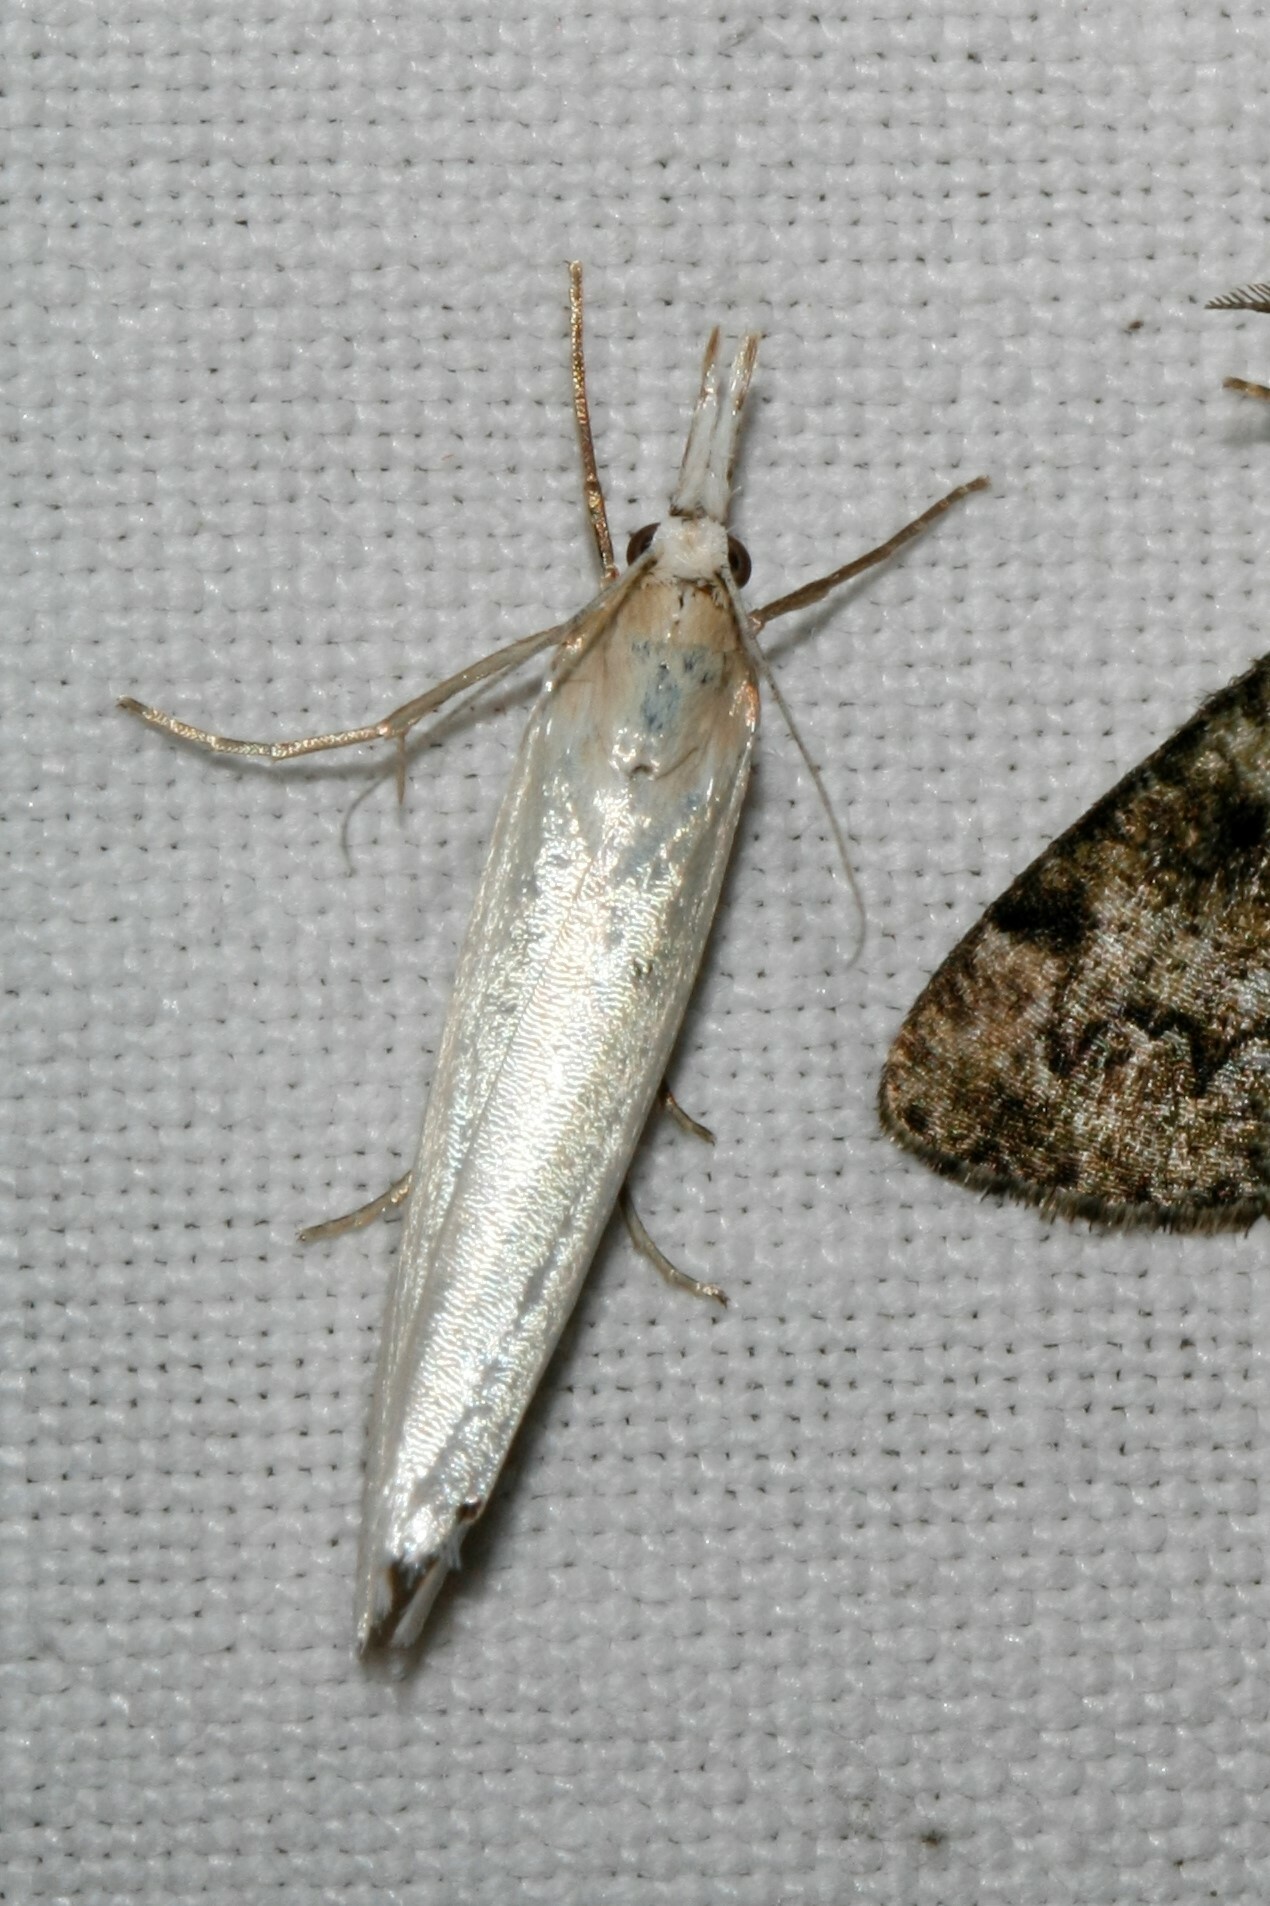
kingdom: Animalia
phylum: Arthropoda
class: Insecta
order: Lepidoptera
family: Crambidae
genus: Crambus
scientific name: Crambus perlellus
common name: Yellow satin veneer
